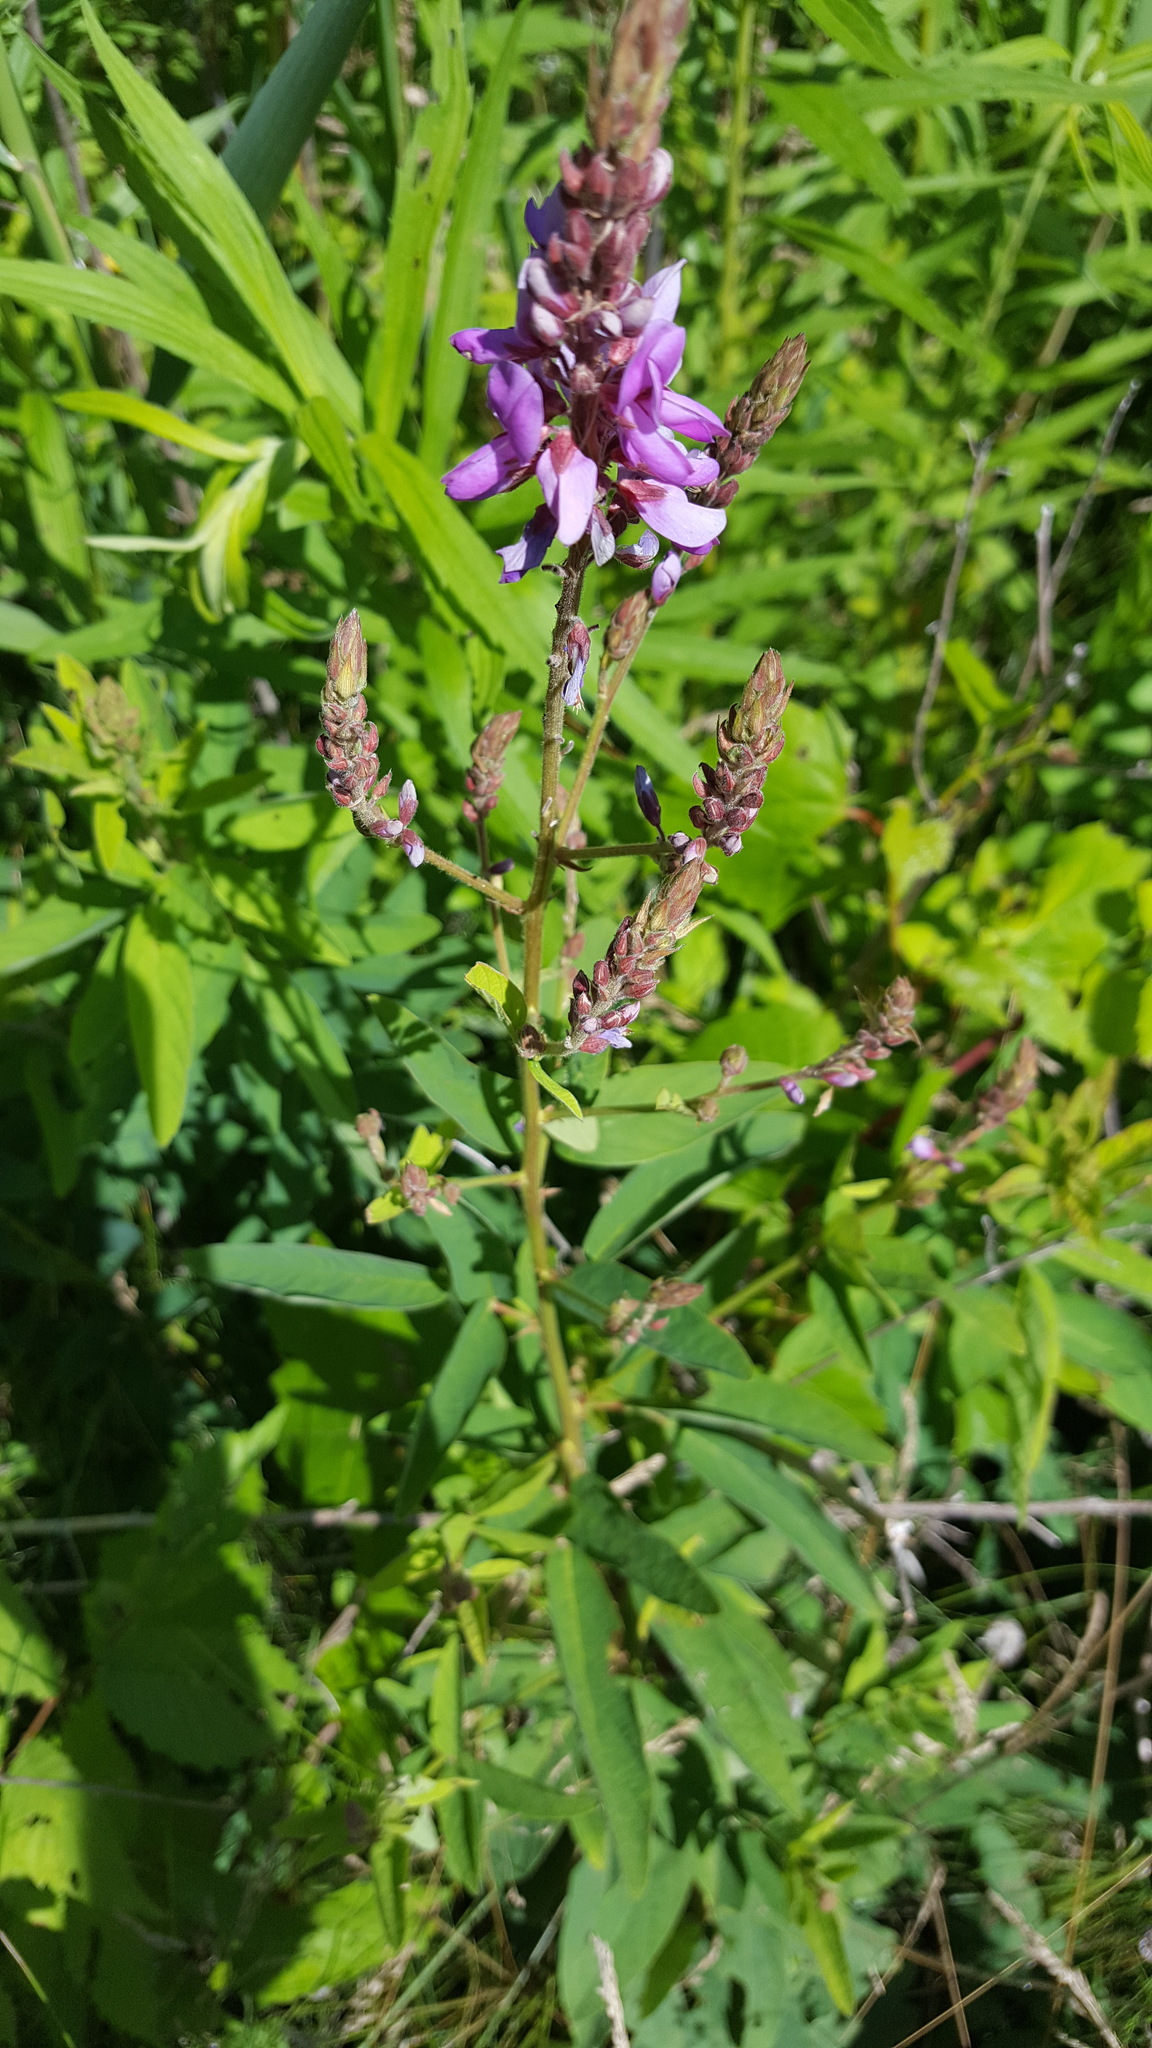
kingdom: Plantae
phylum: Tracheophyta
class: Magnoliopsida
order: Fabales
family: Fabaceae
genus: Desmodium
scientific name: Desmodium canadense
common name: Canada tick-trefoil
